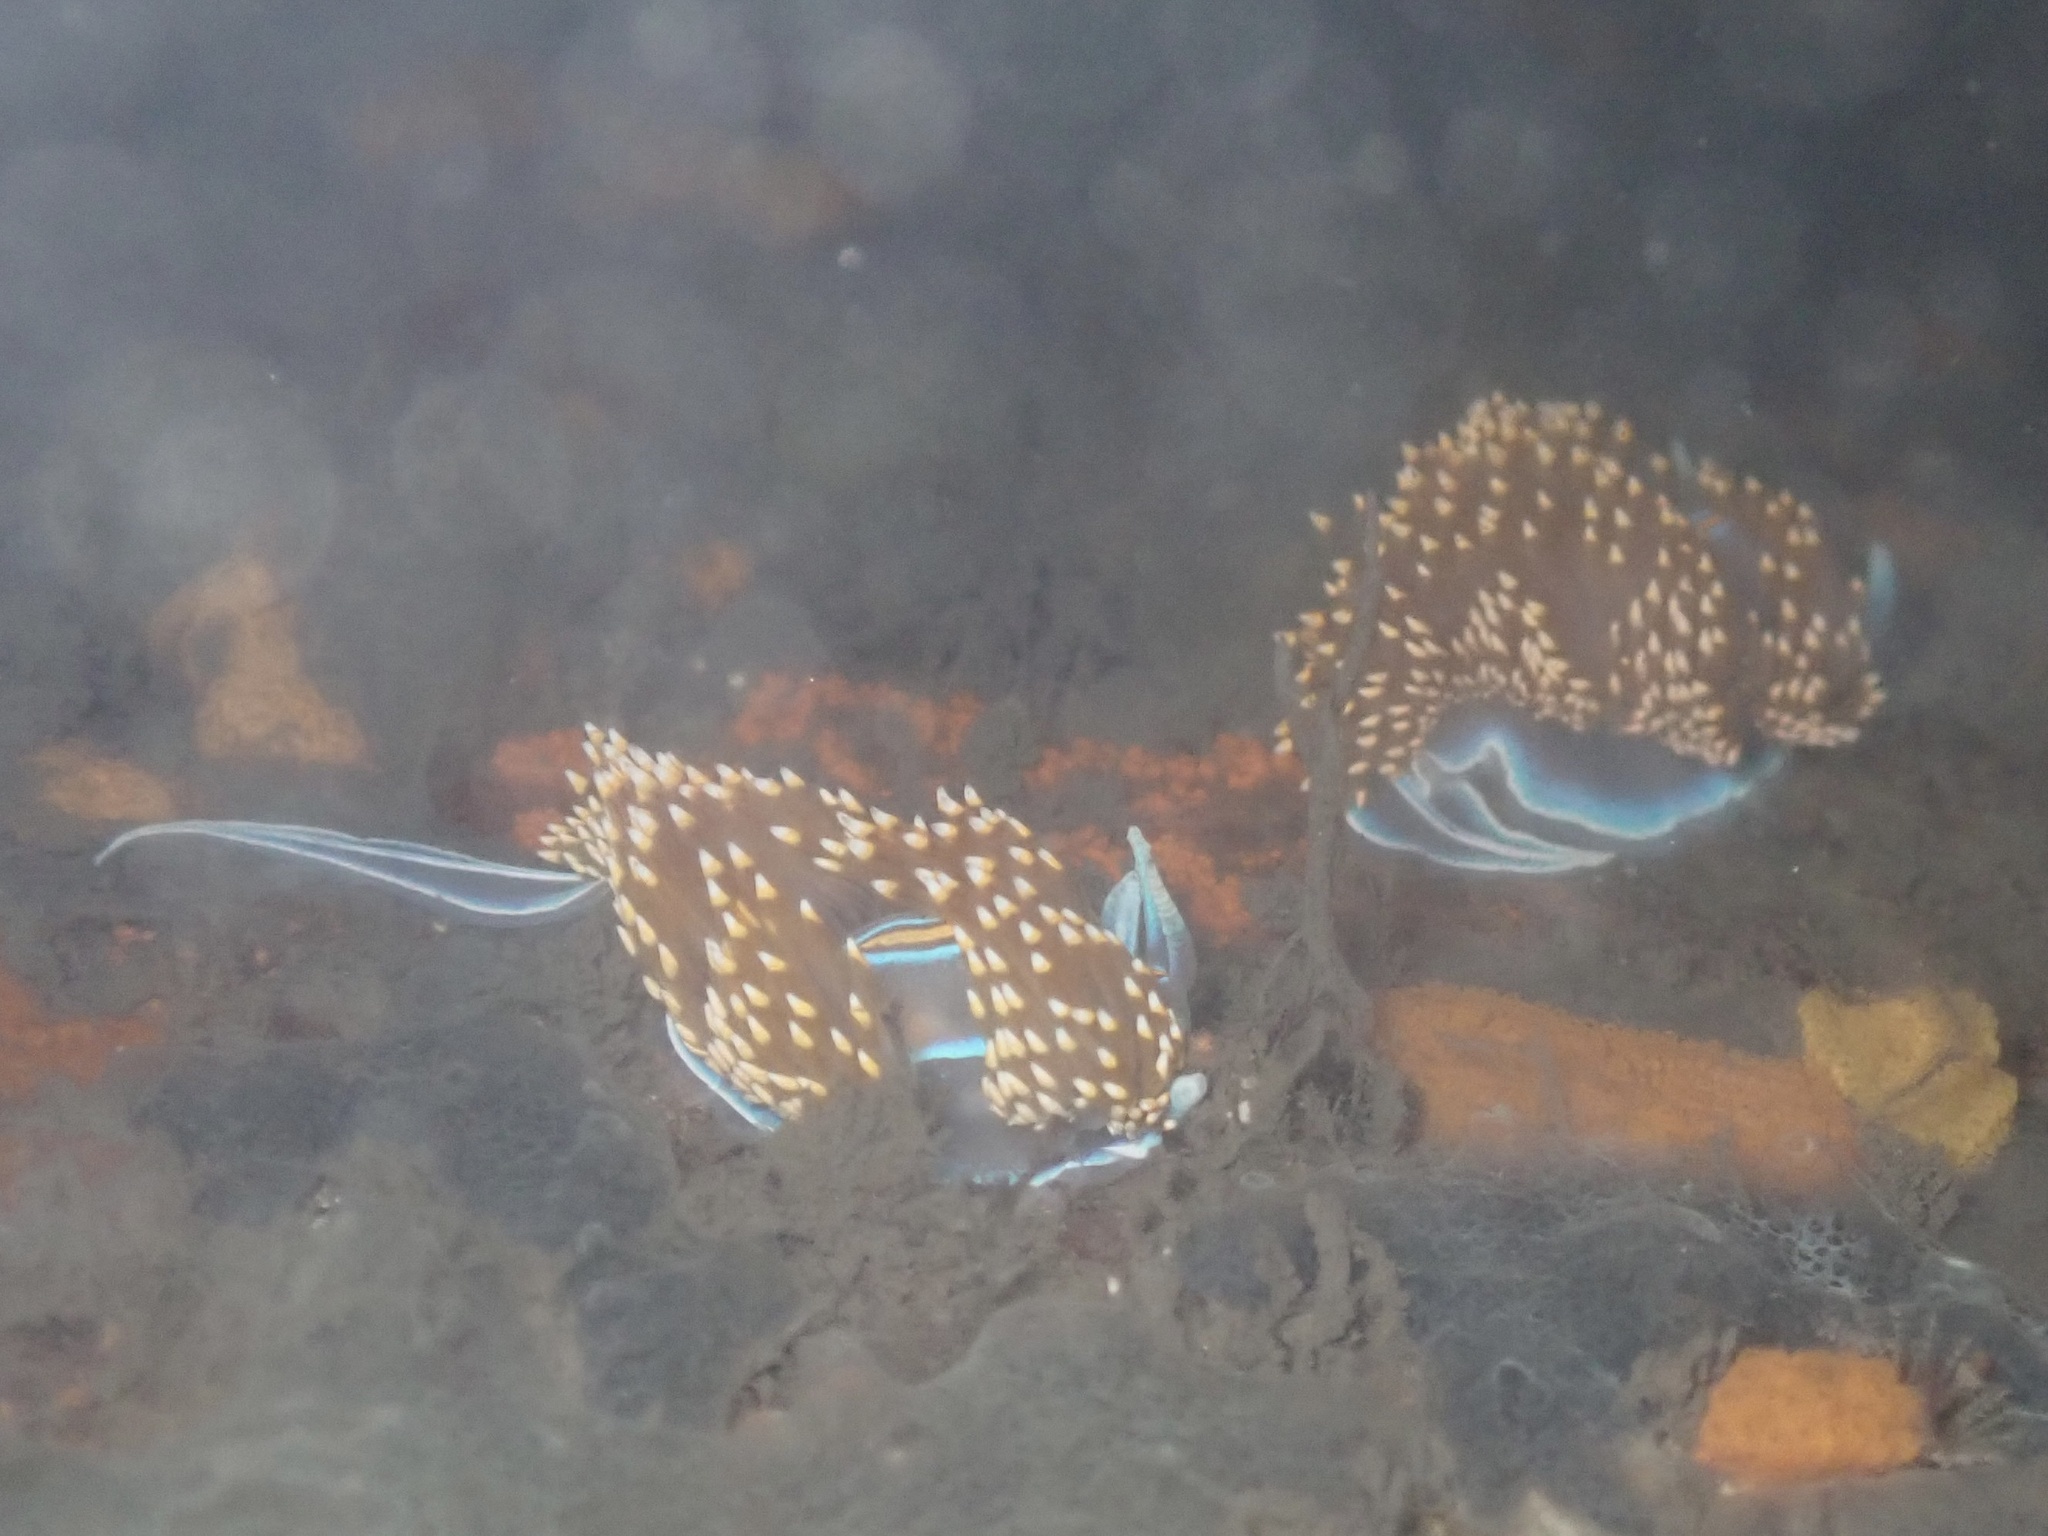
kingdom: Animalia
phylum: Mollusca
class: Gastropoda
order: Nudibranchia
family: Myrrhinidae
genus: Hermissenda
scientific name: Hermissenda opalescens
